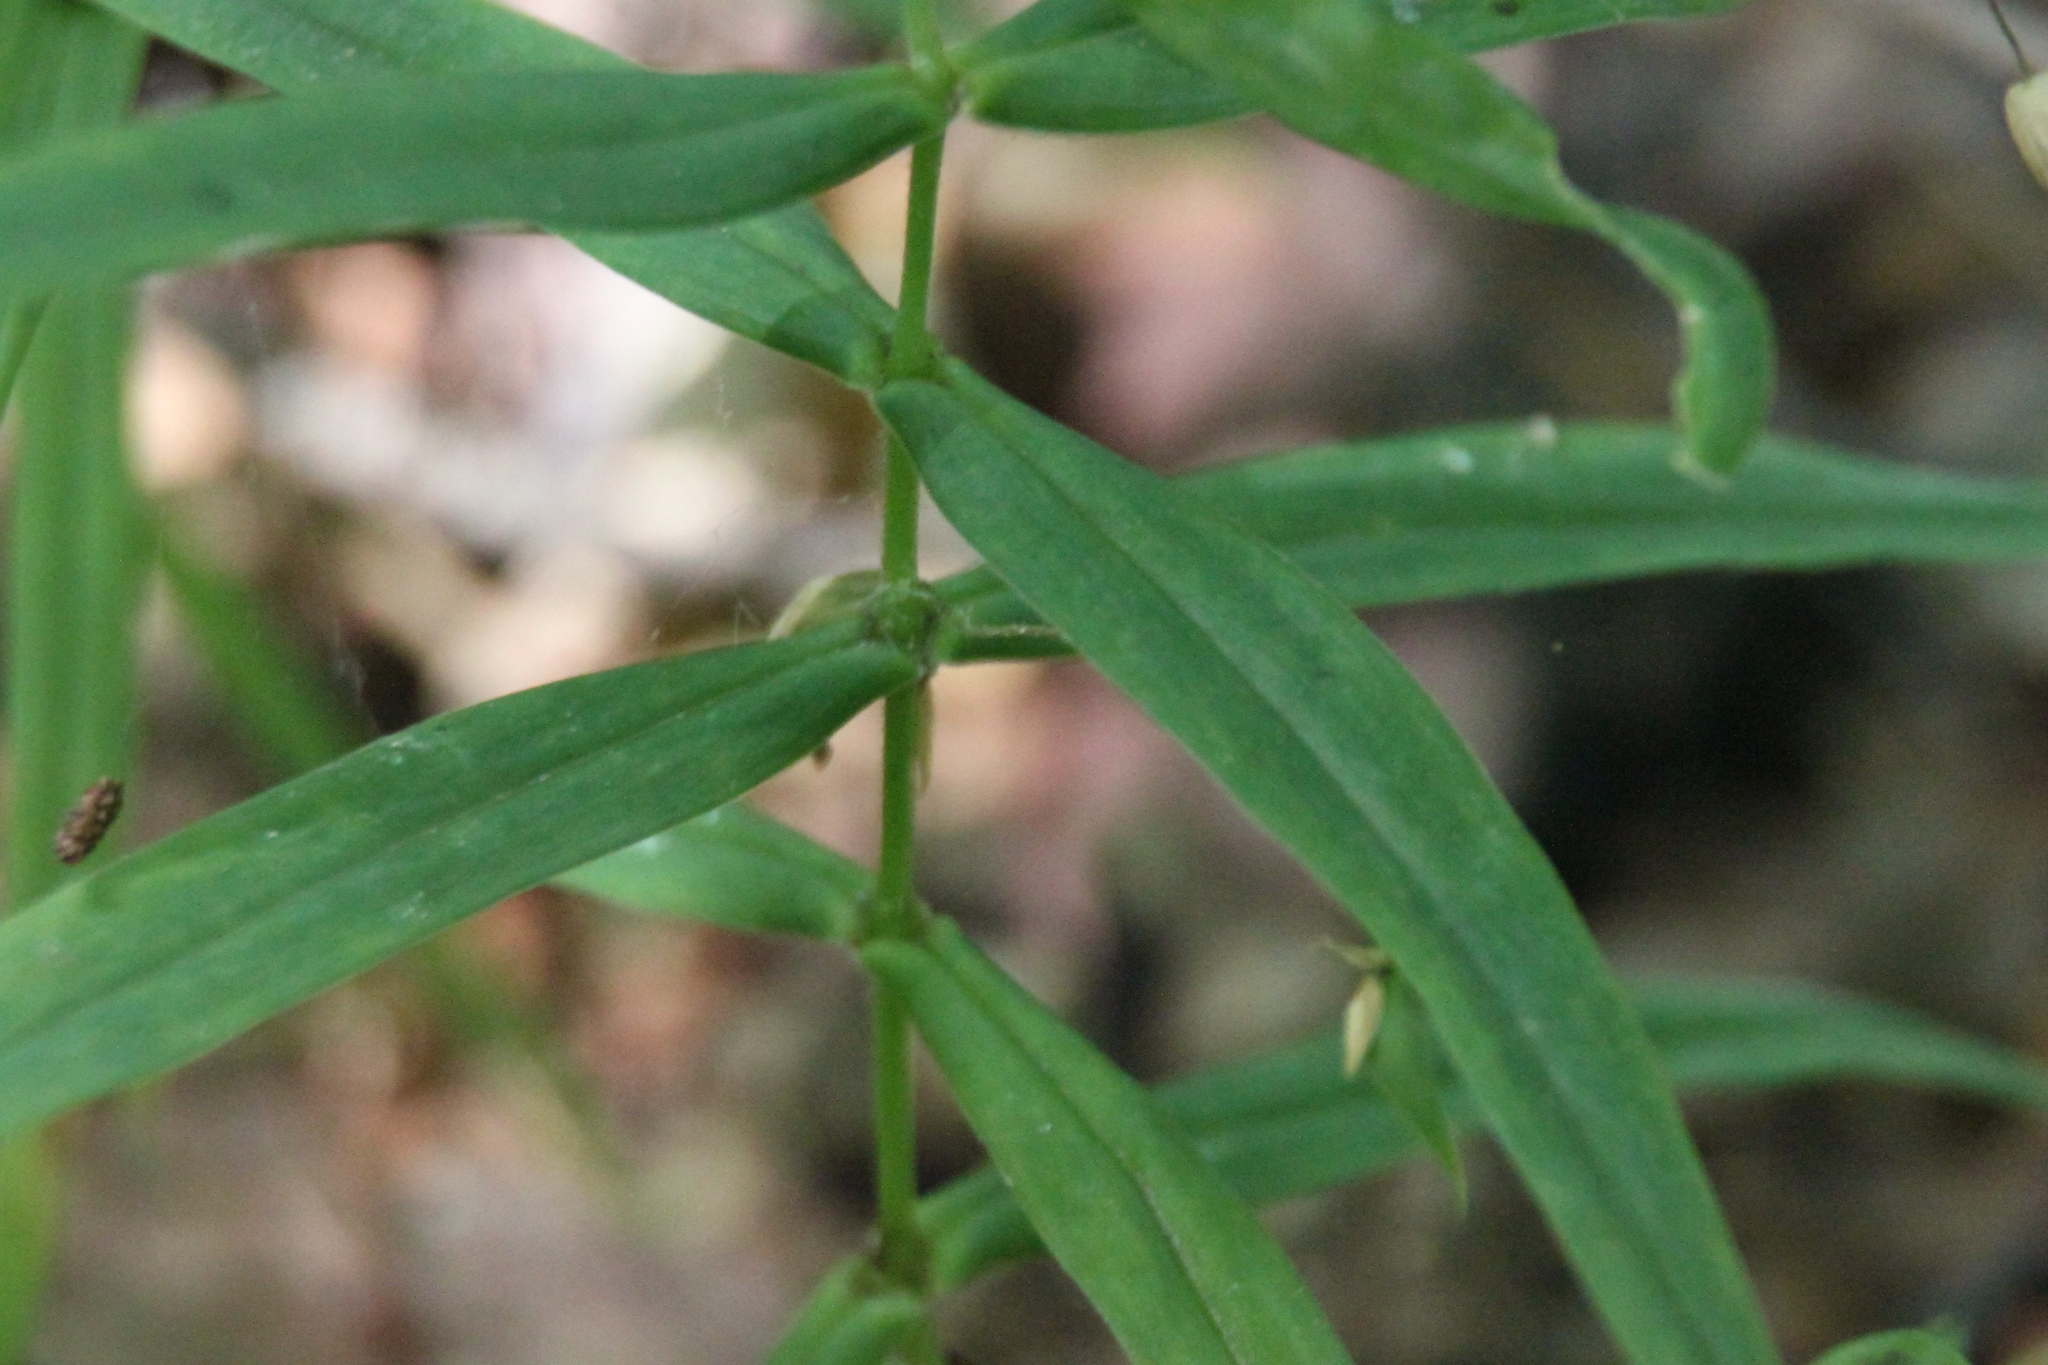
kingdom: Plantae
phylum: Tracheophyta
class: Magnoliopsida
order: Caryophyllales
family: Caryophyllaceae
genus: Rabelera
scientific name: Rabelera holostea
